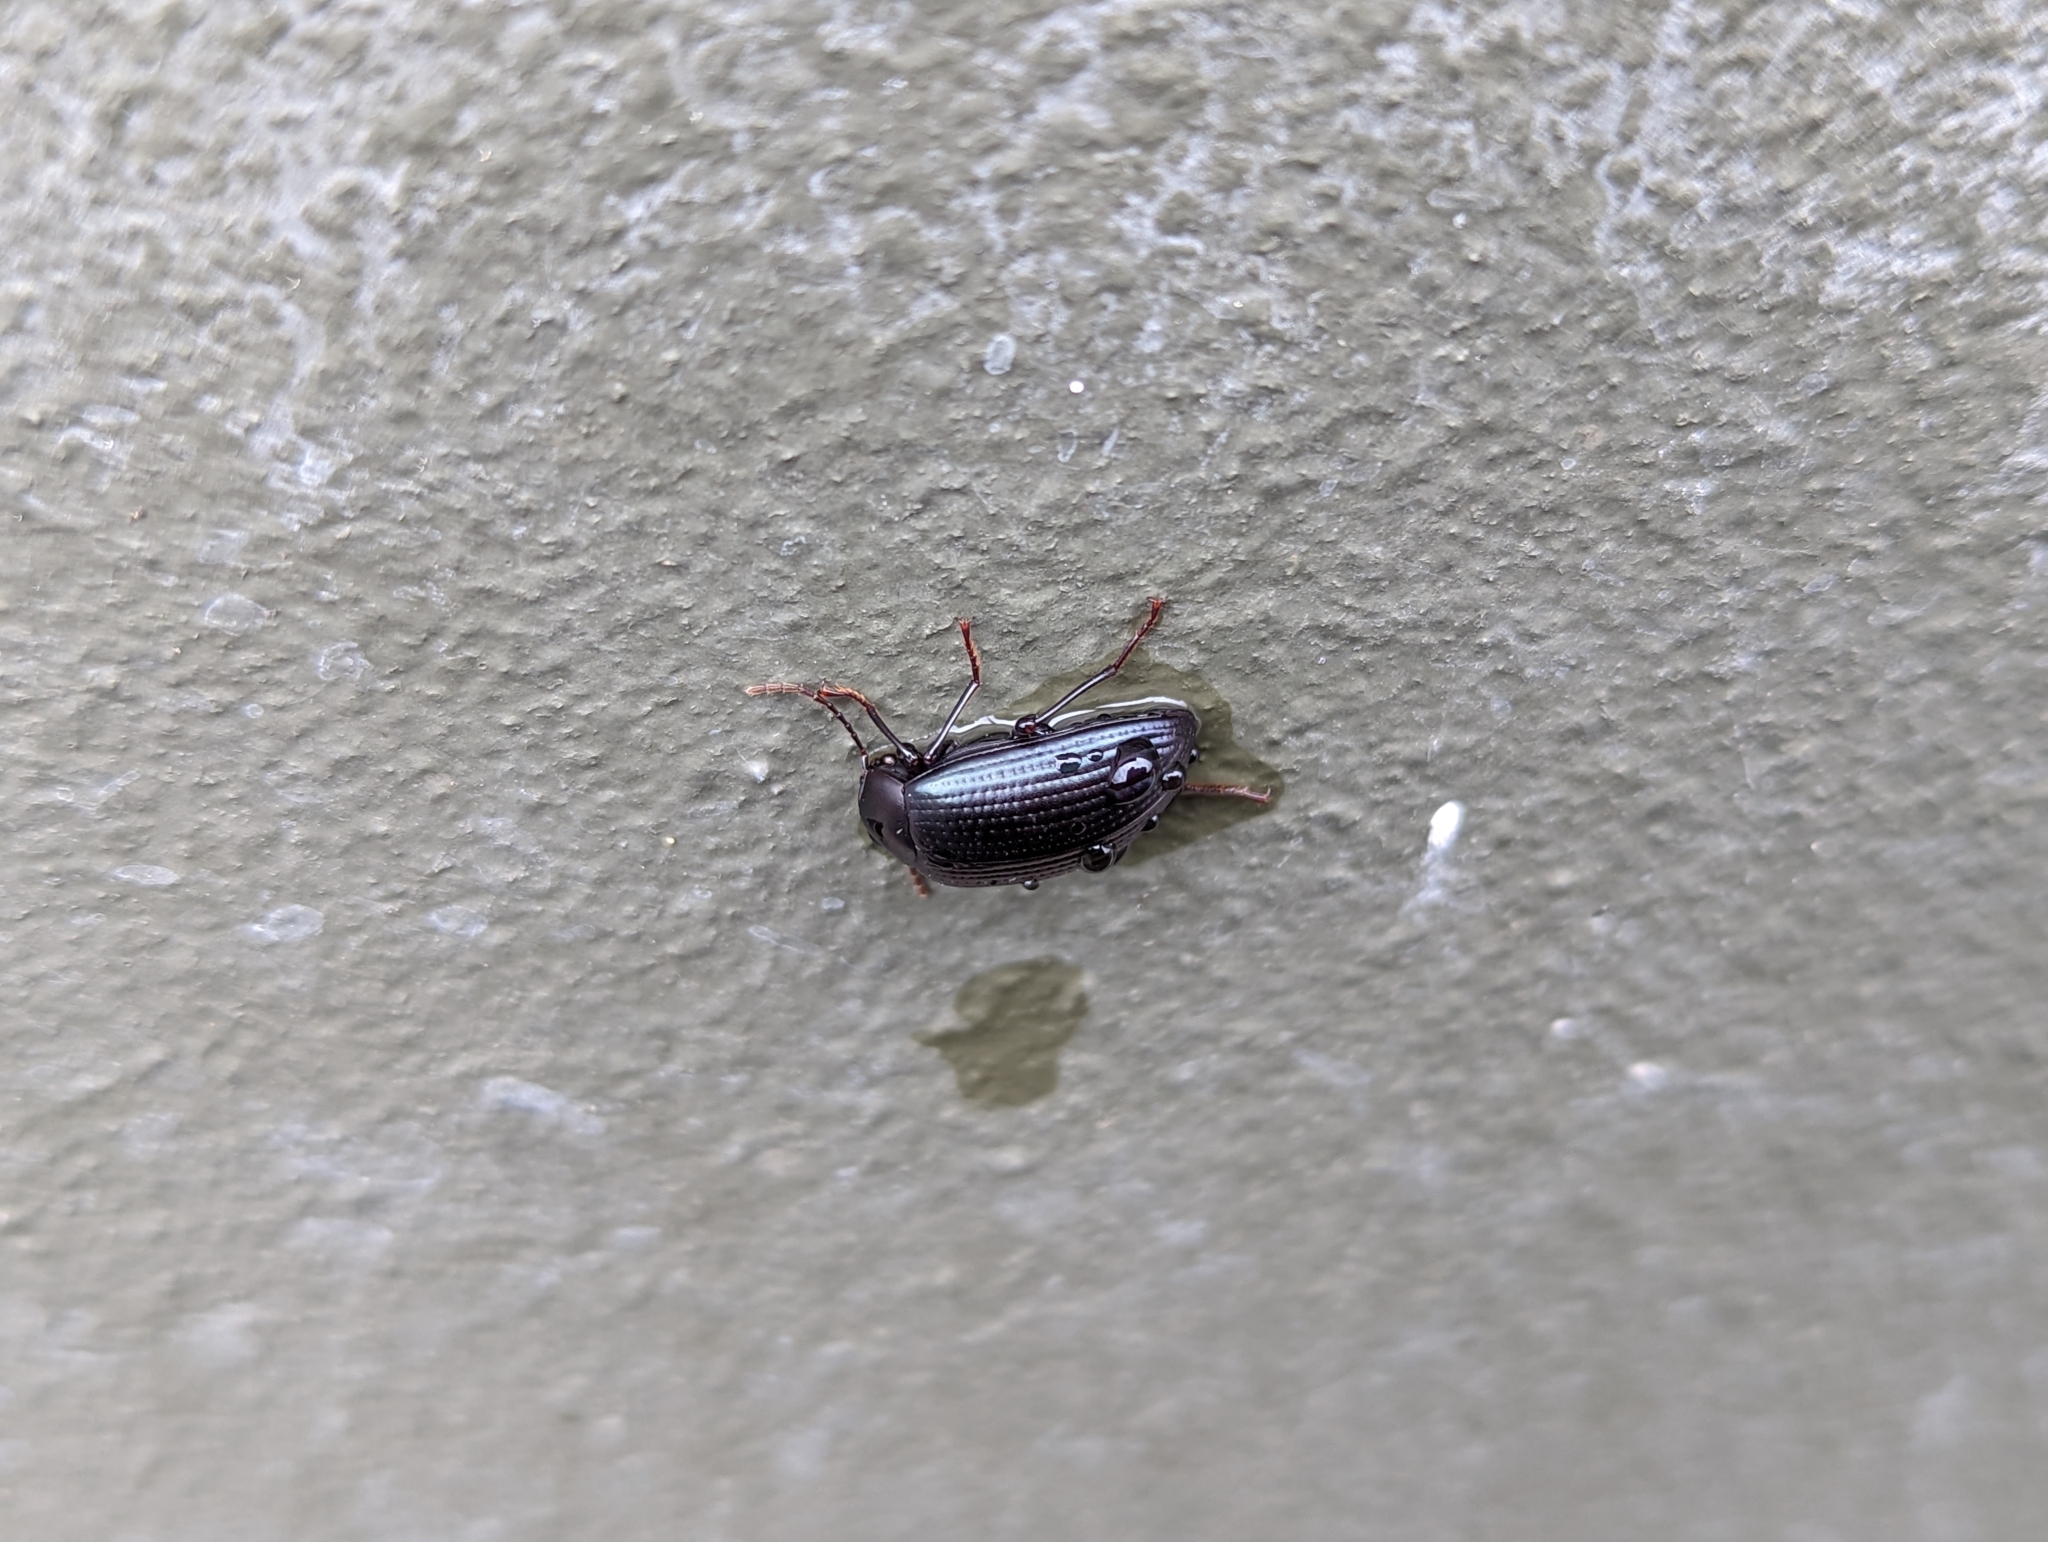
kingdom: Animalia
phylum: Arthropoda
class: Insecta
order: Coleoptera
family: Tenebrionidae
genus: Amarygmus
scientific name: Amarygmus
